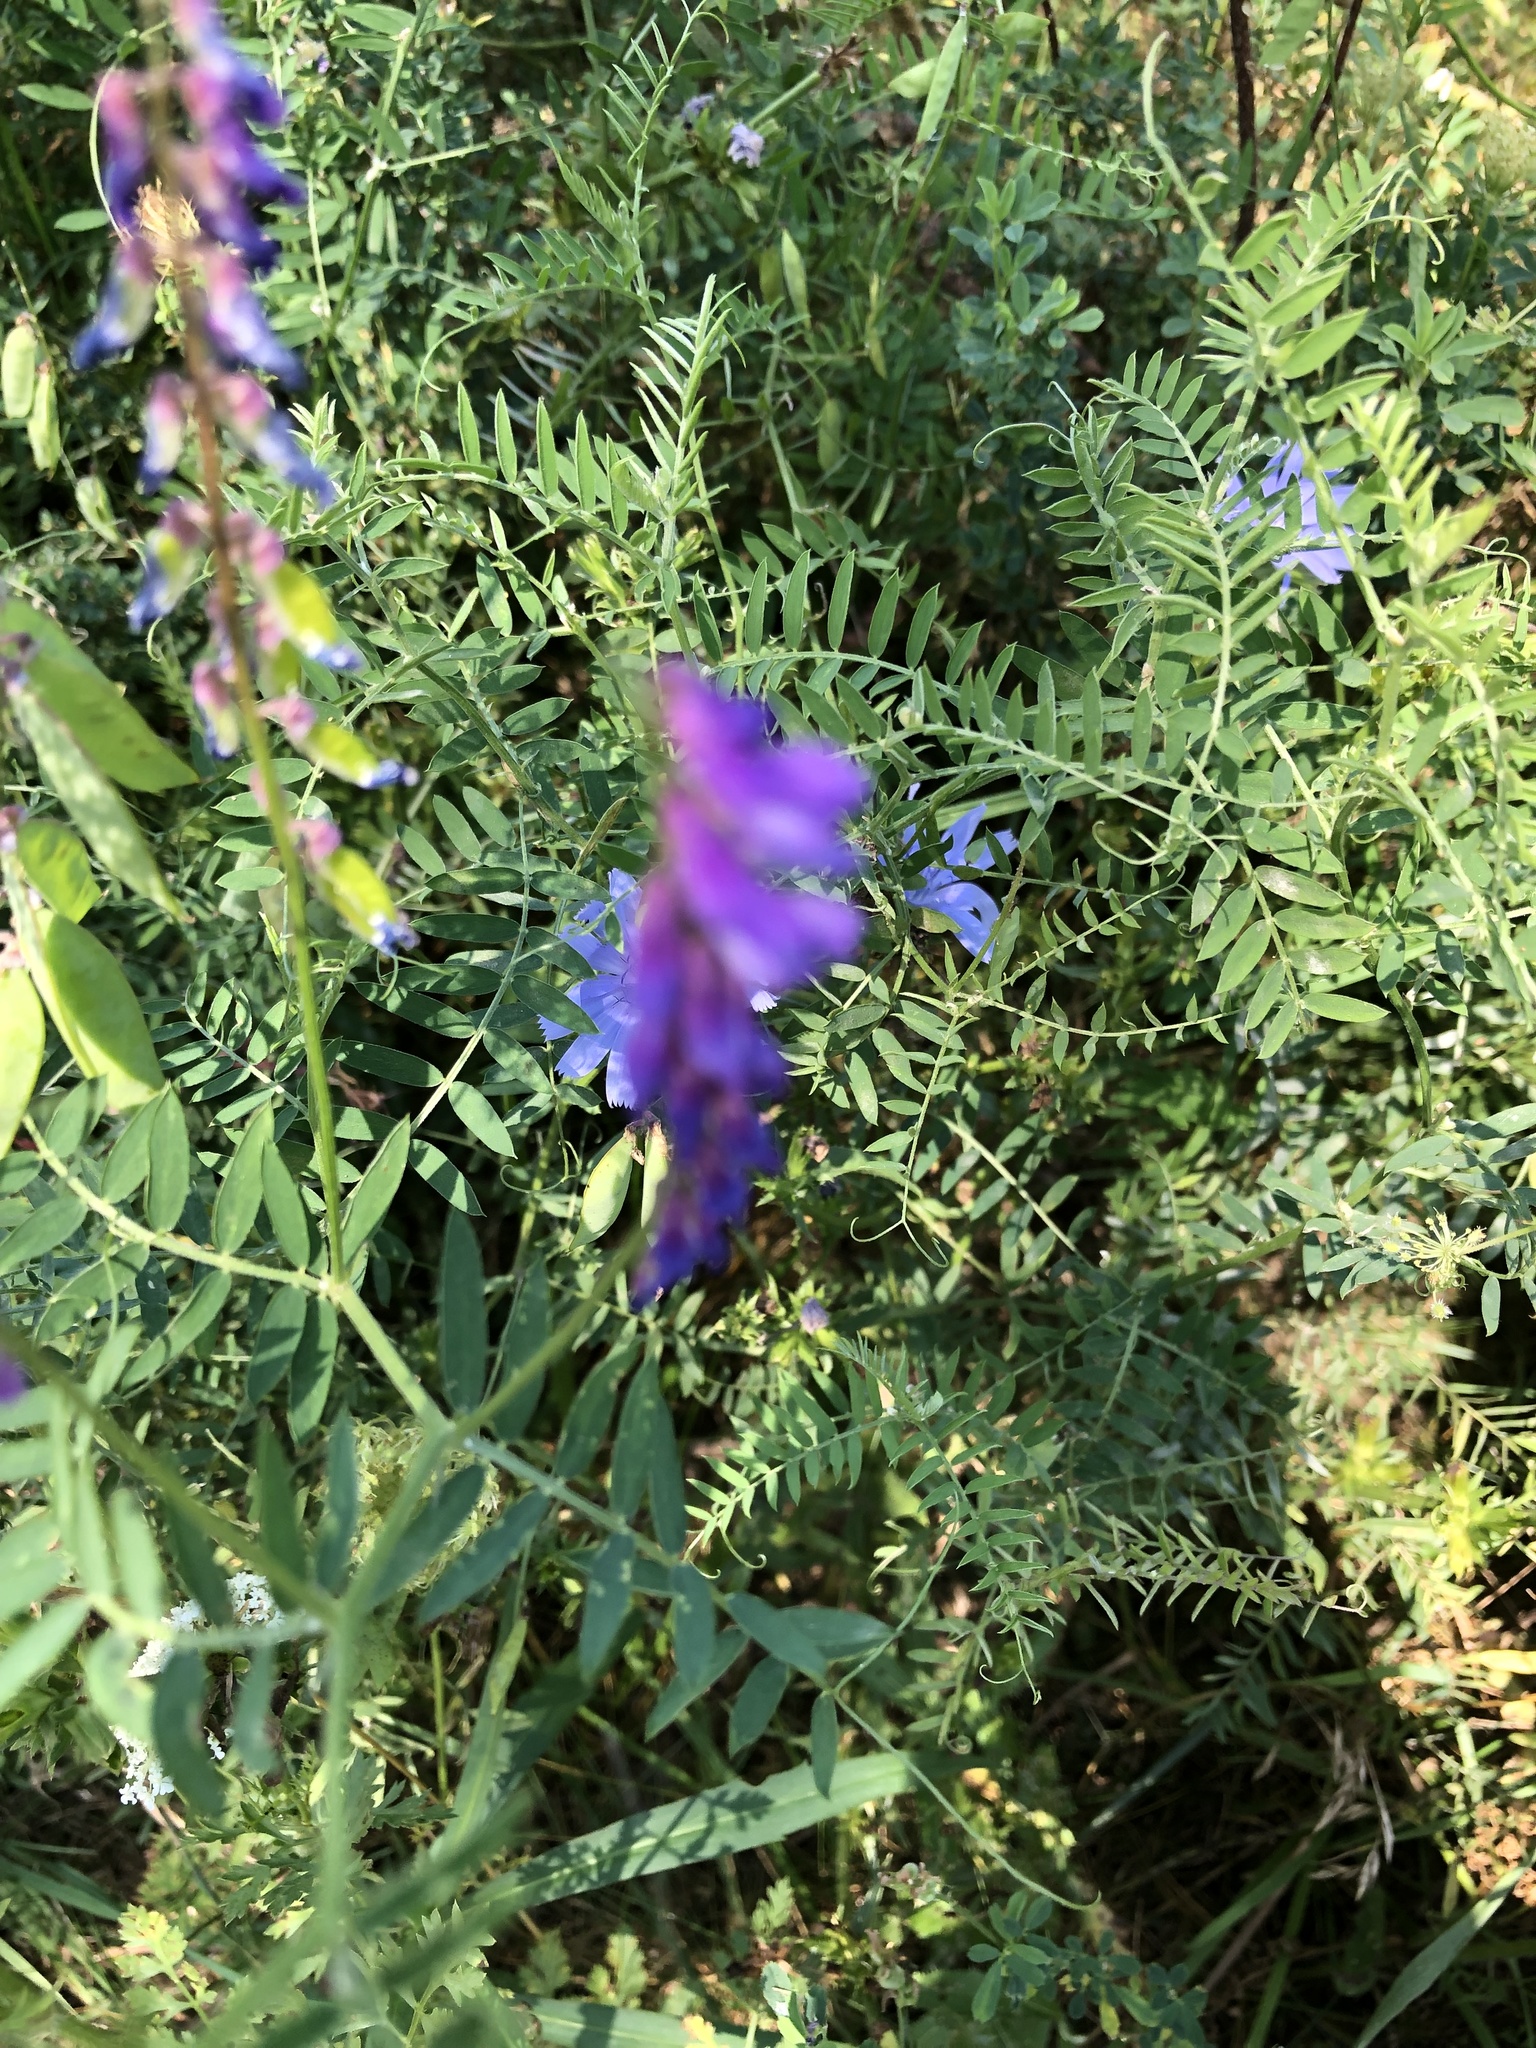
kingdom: Plantae
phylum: Tracheophyta
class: Magnoliopsida
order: Fabales
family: Fabaceae
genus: Vicia
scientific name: Vicia cracca
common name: Bird vetch
